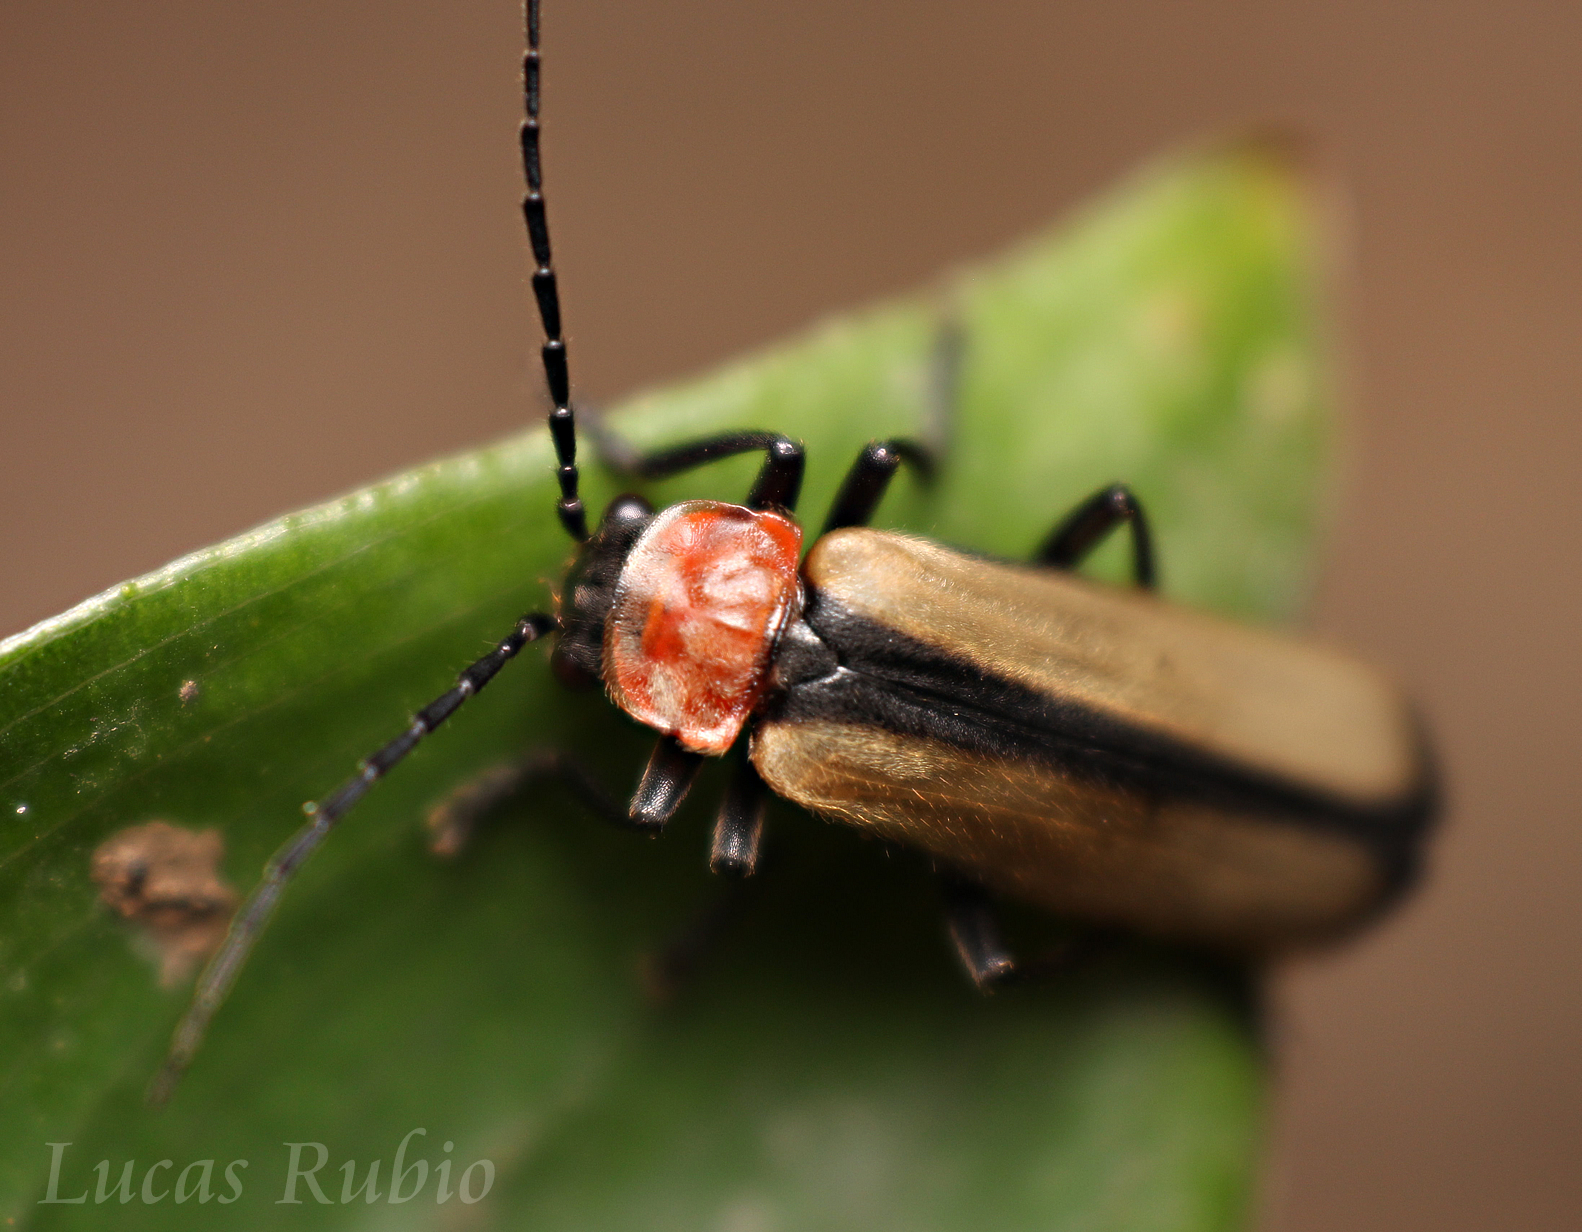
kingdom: Animalia
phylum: Arthropoda
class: Insecta
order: Coleoptera
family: Cantharidae
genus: Discodon
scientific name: Discodon
